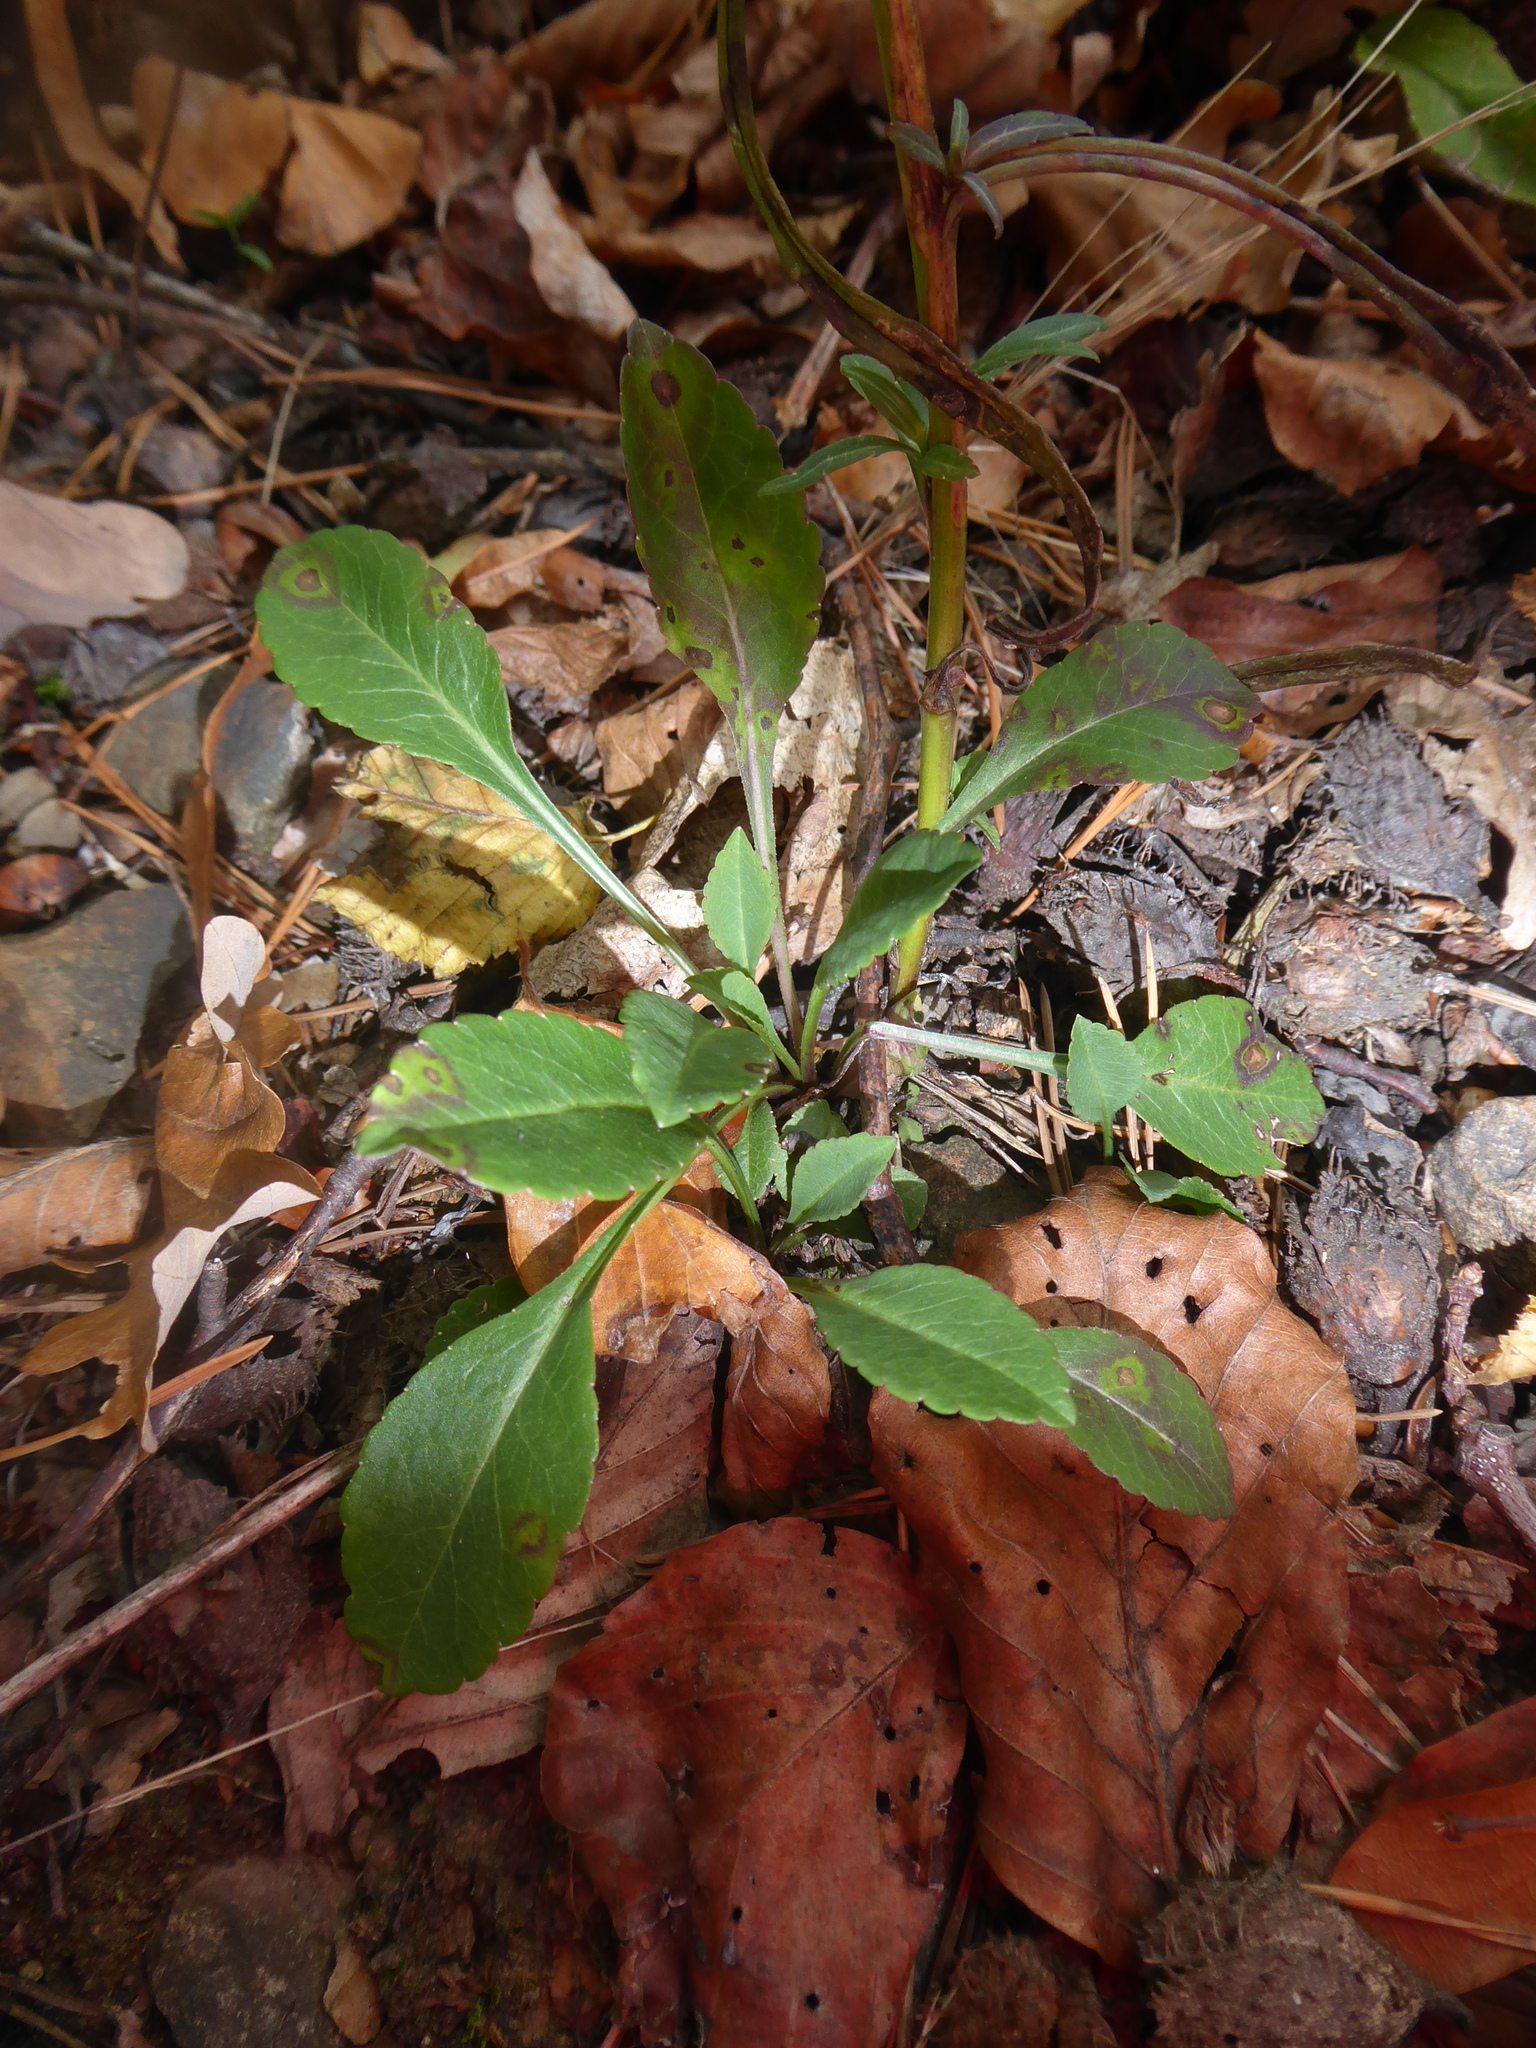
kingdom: Plantae
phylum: Tracheophyta
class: Magnoliopsida
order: Asterales
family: Campanulaceae
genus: Campanula
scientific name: Campanula persicifolia
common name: Peach-leaved bellflower
